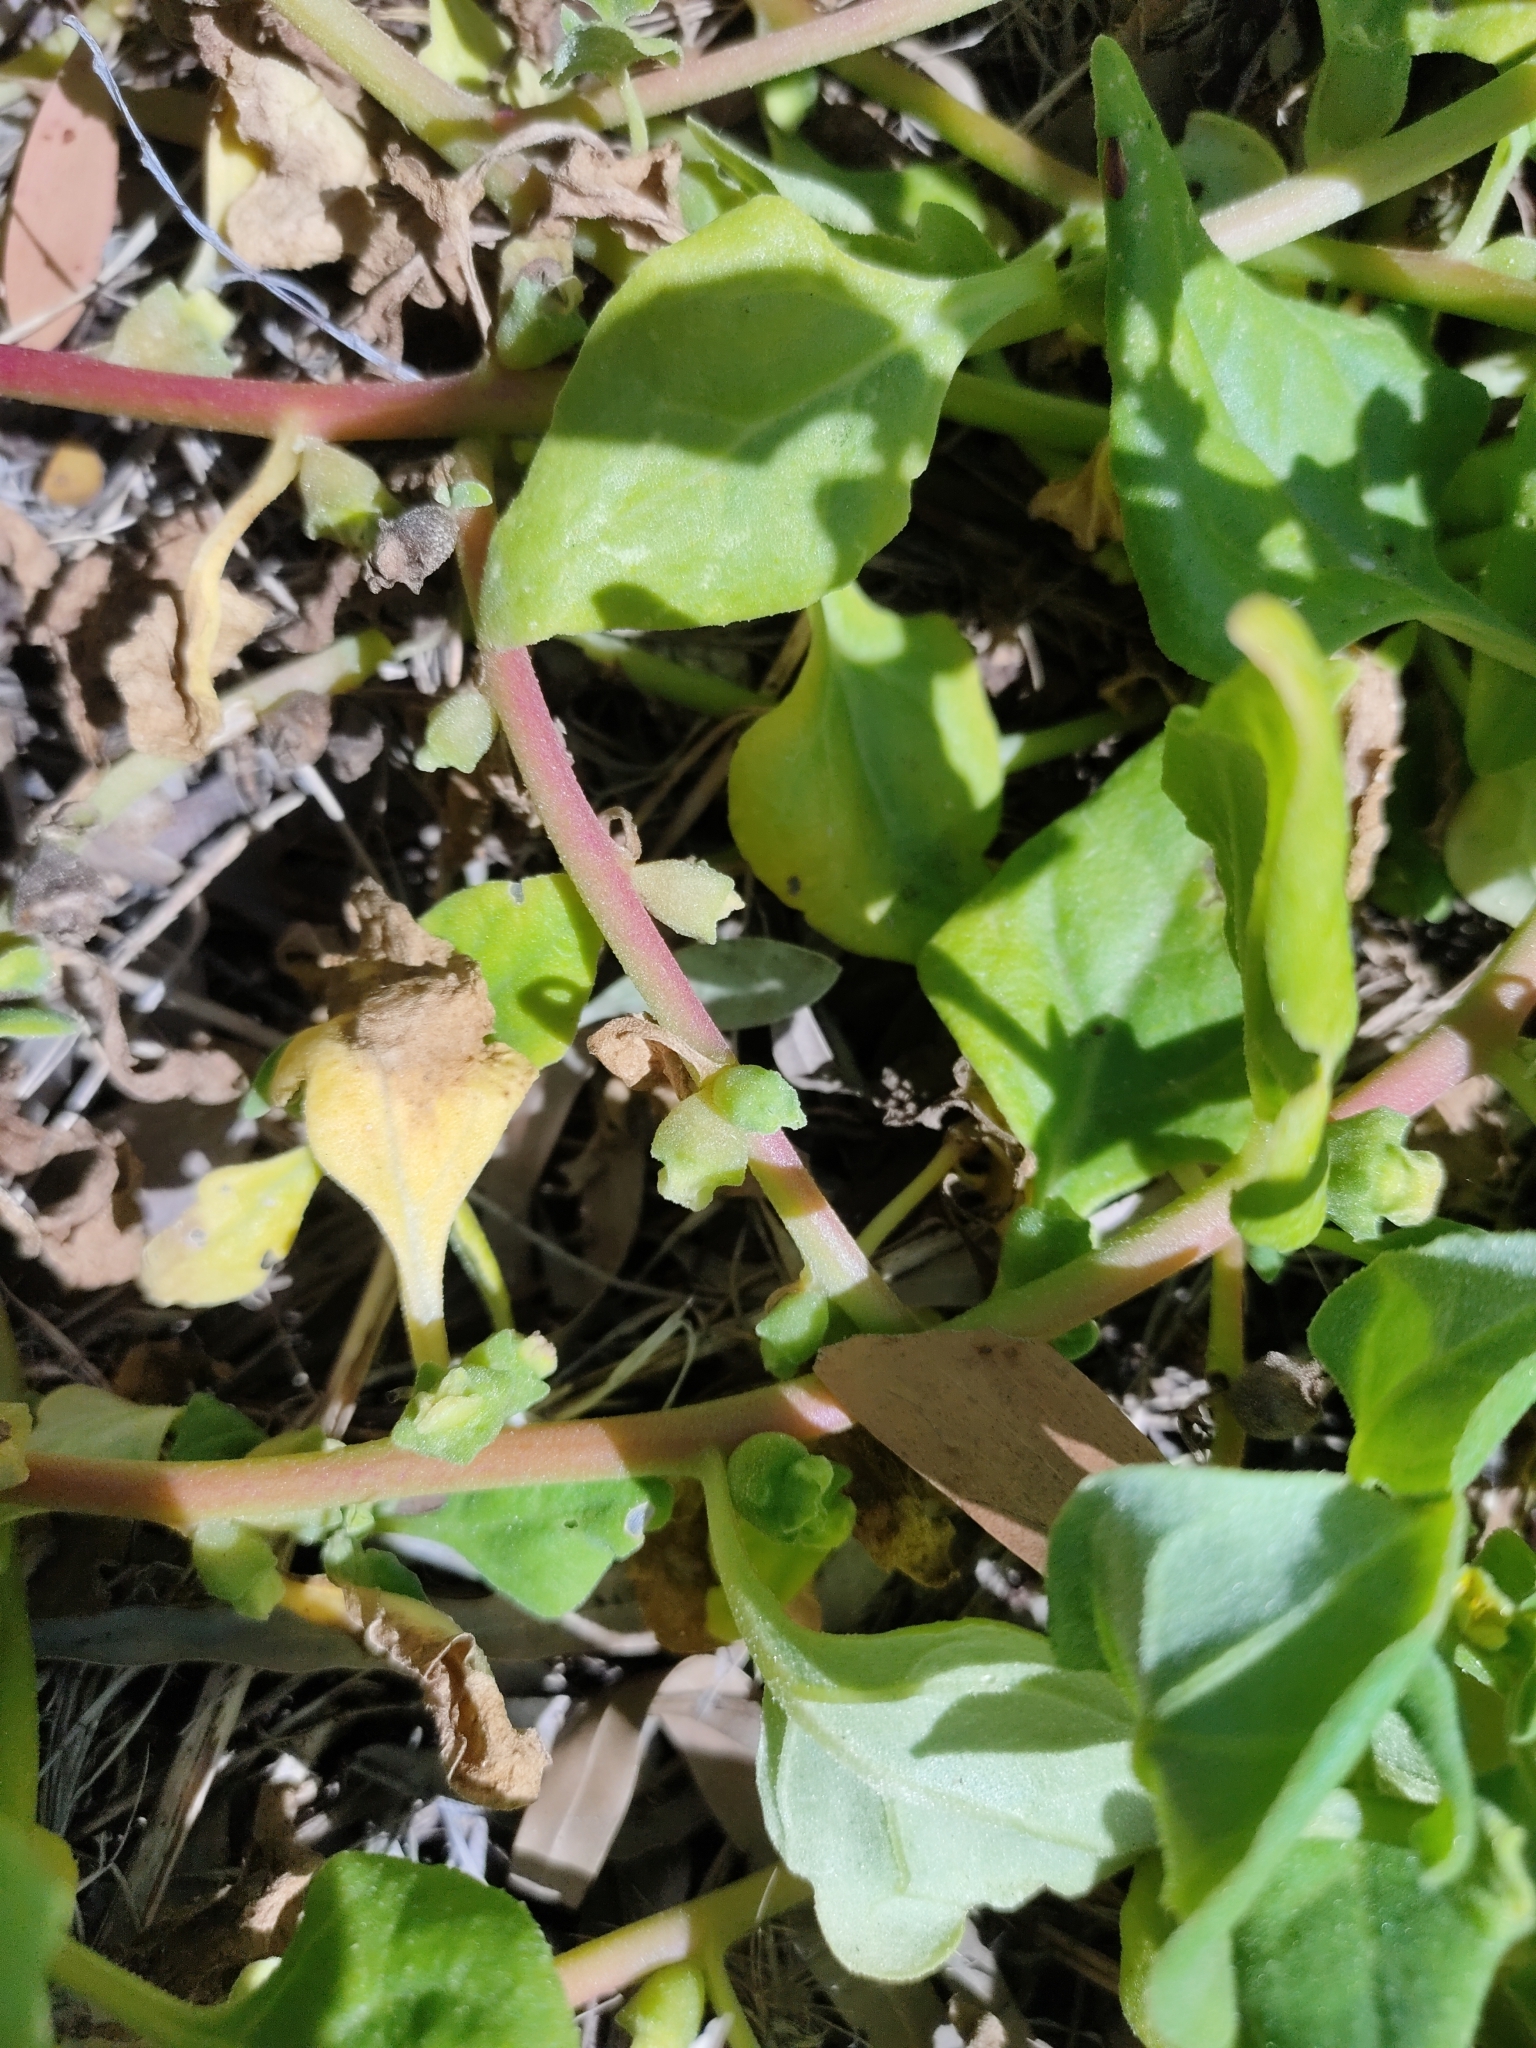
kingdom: Plantae
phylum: Tracheophyta
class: Magnoliopsida
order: Caryophyllales
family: Aizoaceae
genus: Tetragonia
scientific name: Tetragonia tetragonoides
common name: New zealand-spinach
